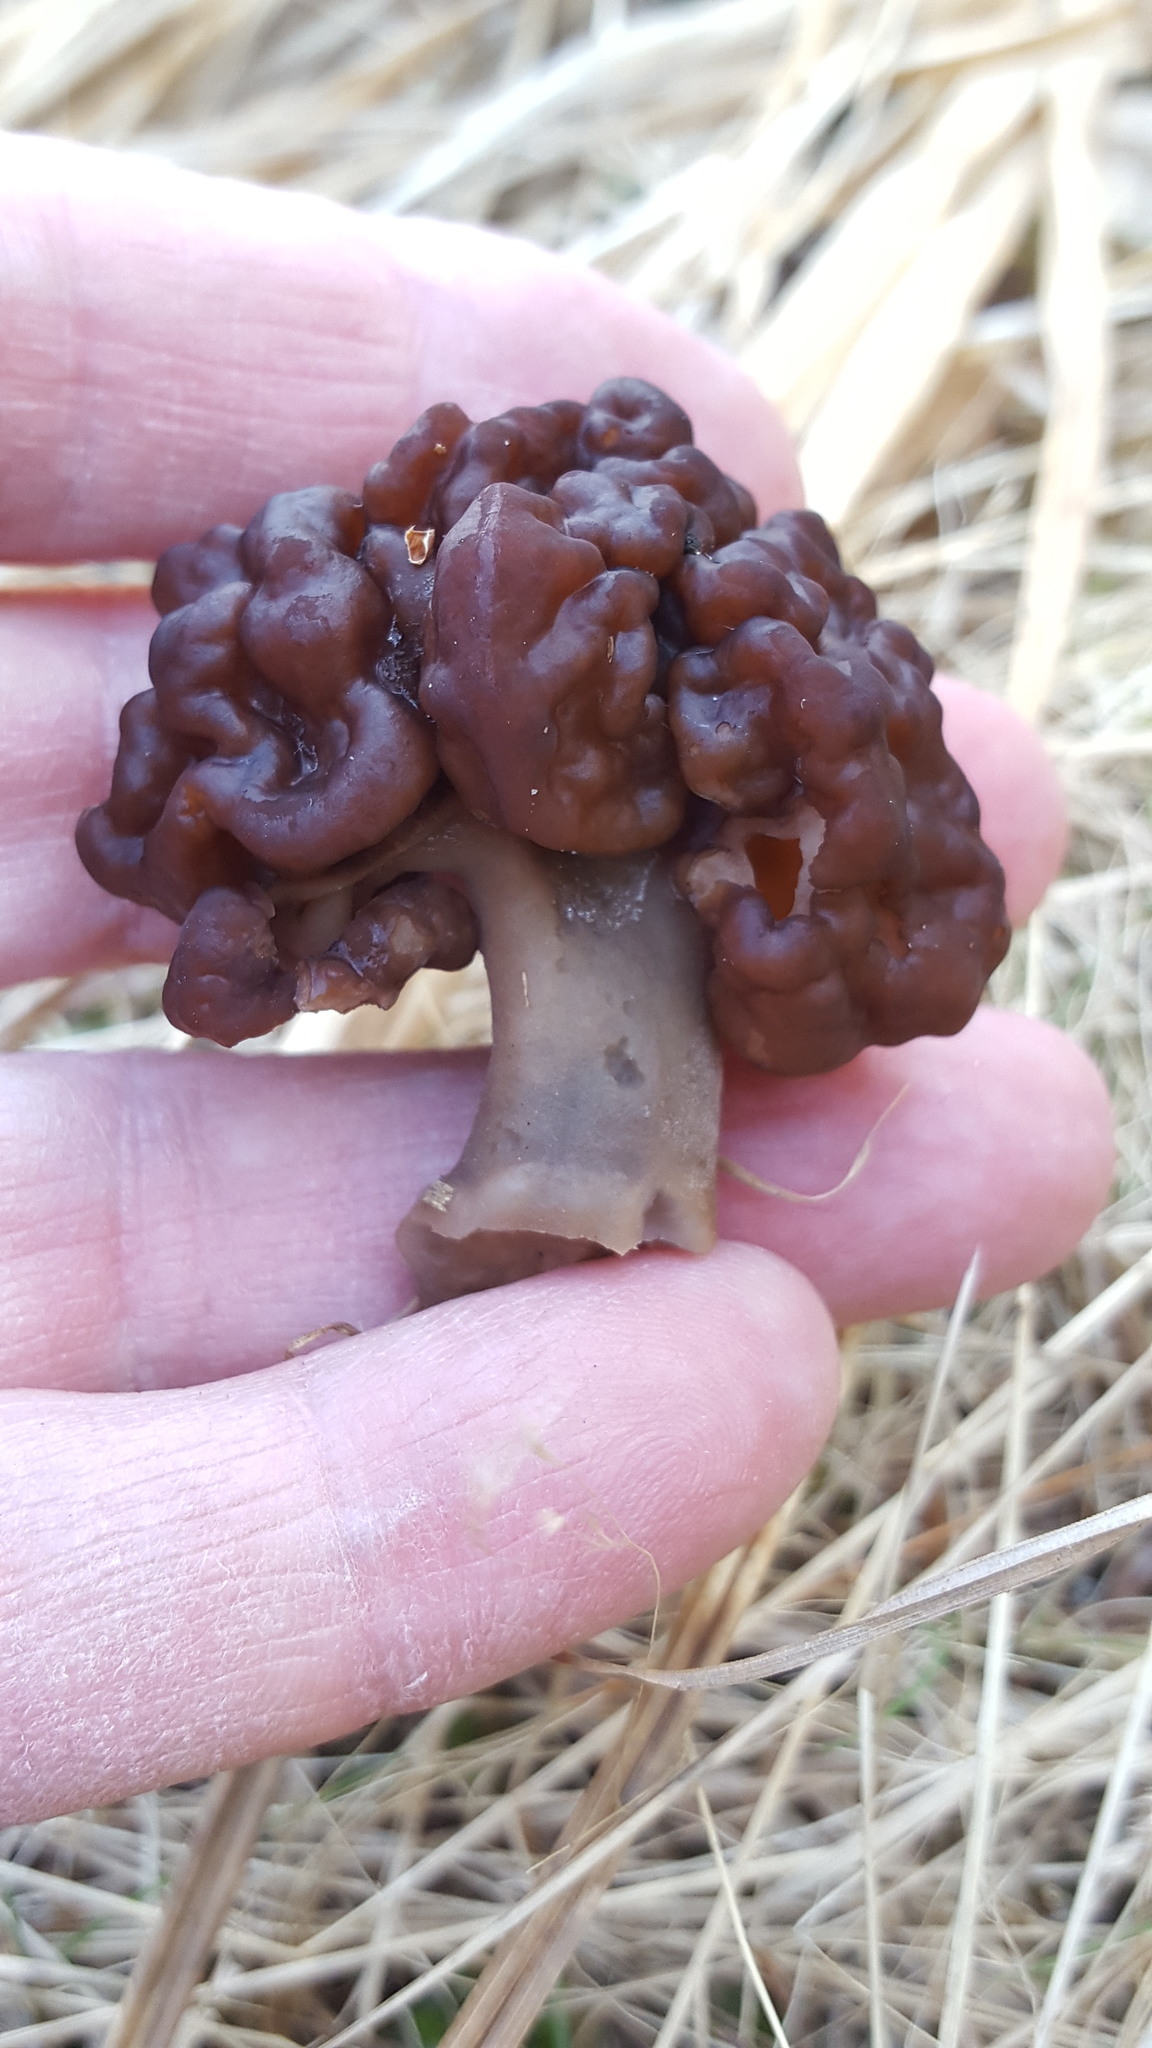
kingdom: Fungi
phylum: Ascomycota
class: Pezizomycetes
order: Pezizales
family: Discinaceae
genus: Gyromitra
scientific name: Gyromitra esculenta
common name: False morel
